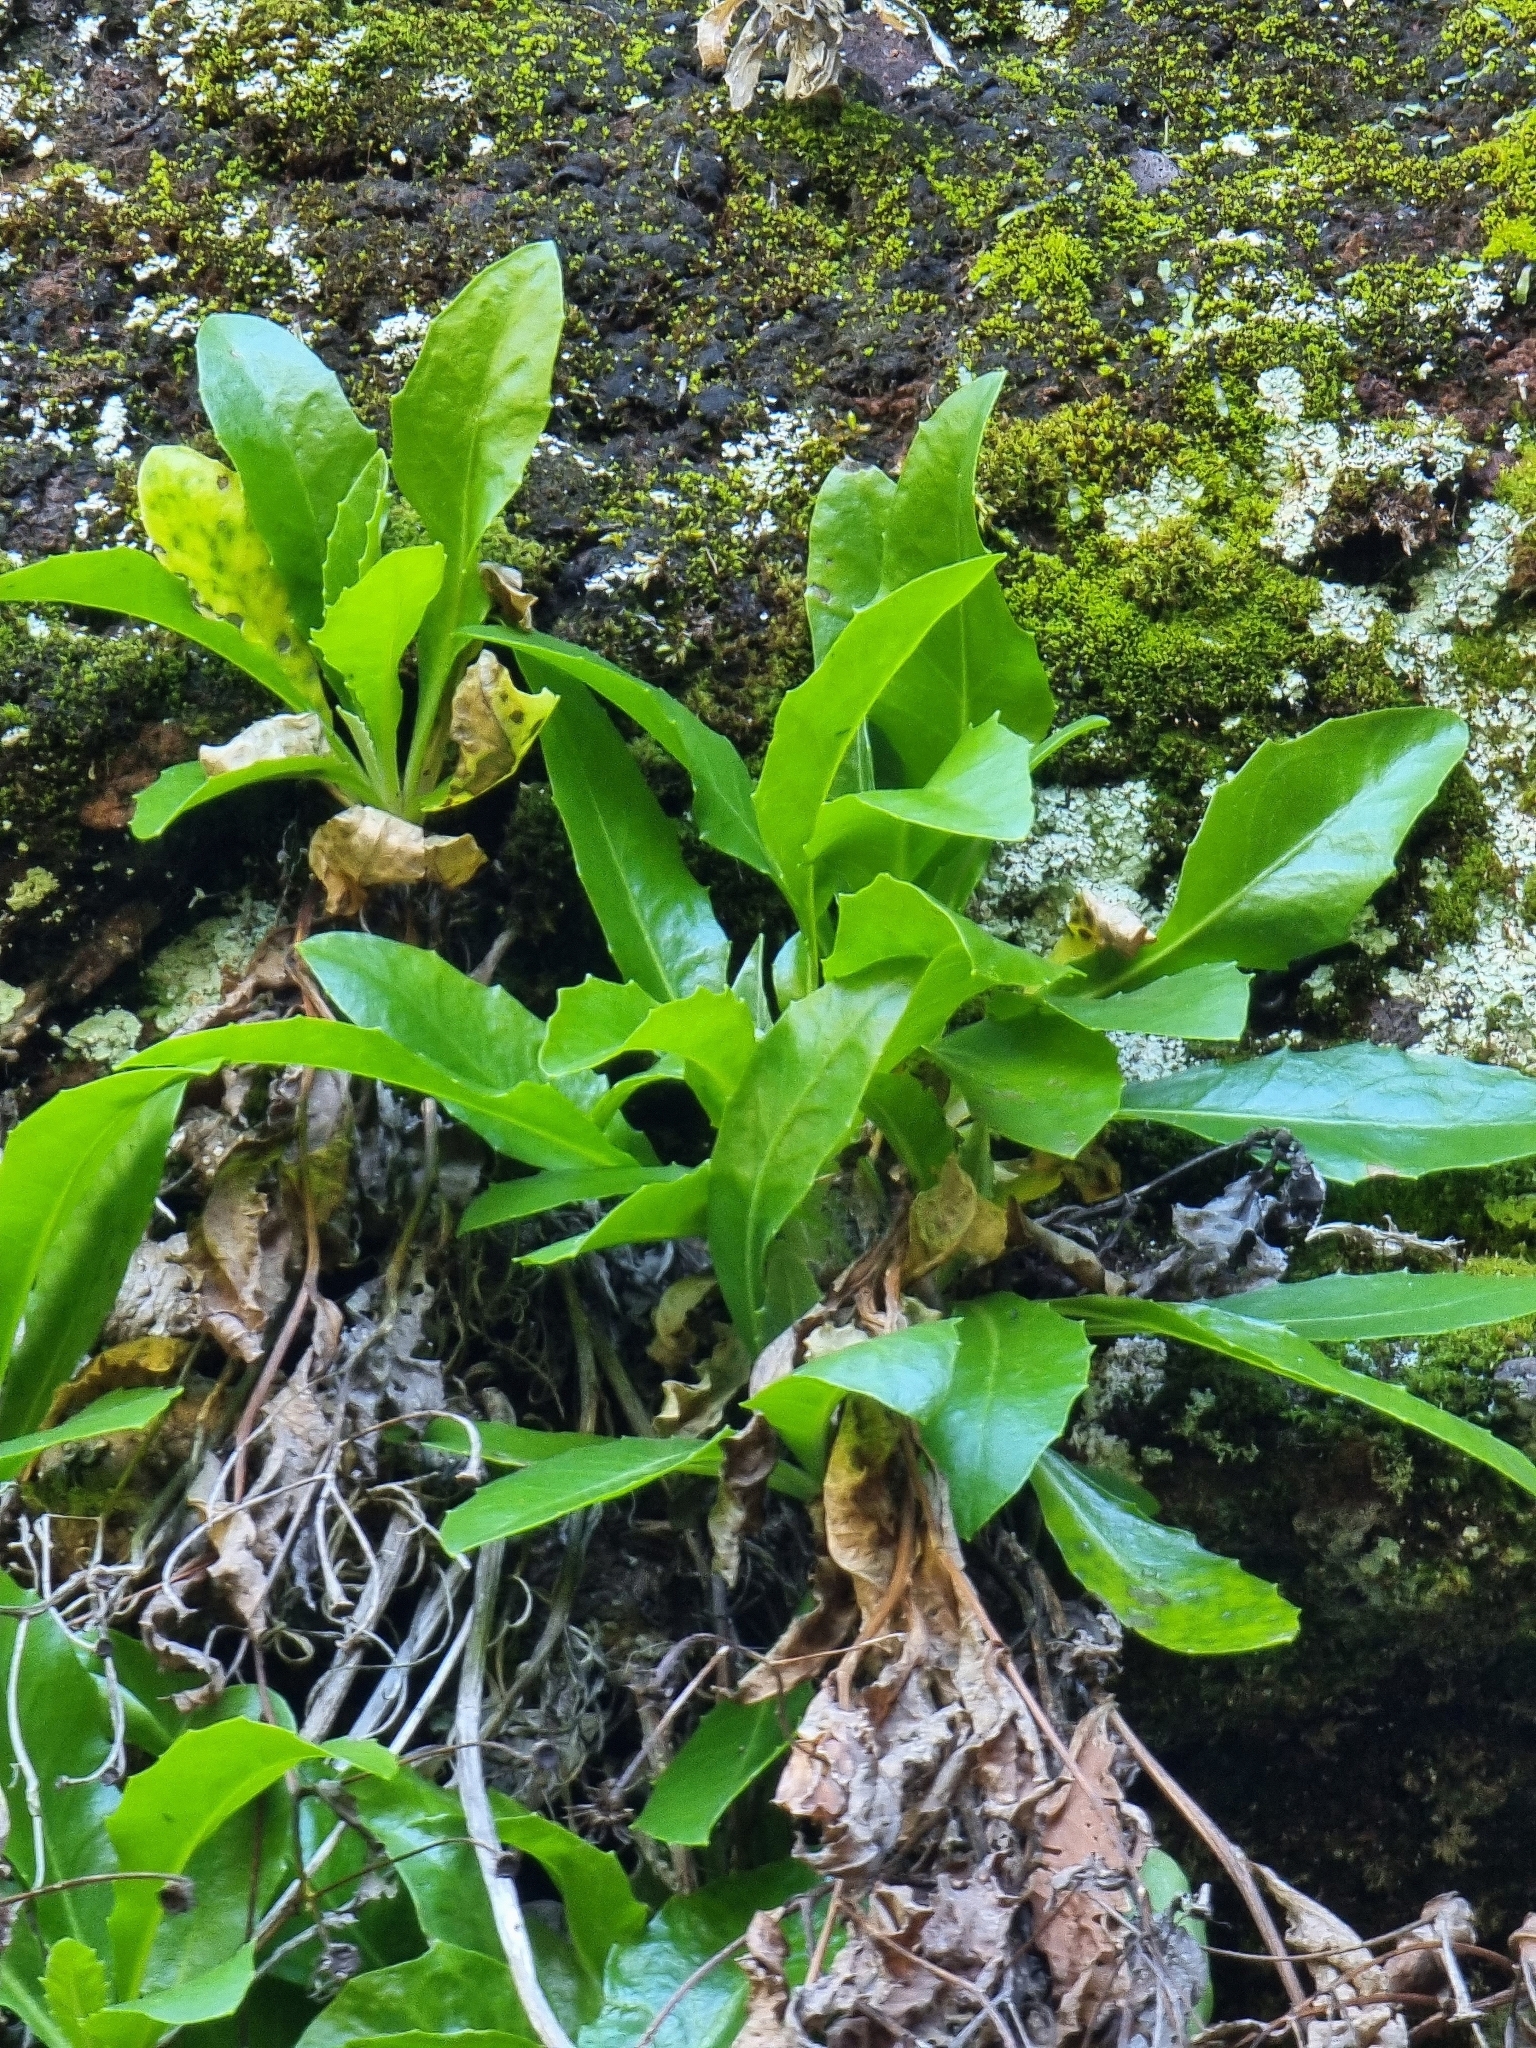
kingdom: Plantae
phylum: Tracheophyta
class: Magnoliopsida
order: Asterales
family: Asteraceae
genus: Tolpis
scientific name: Tolpis macrorhiza
